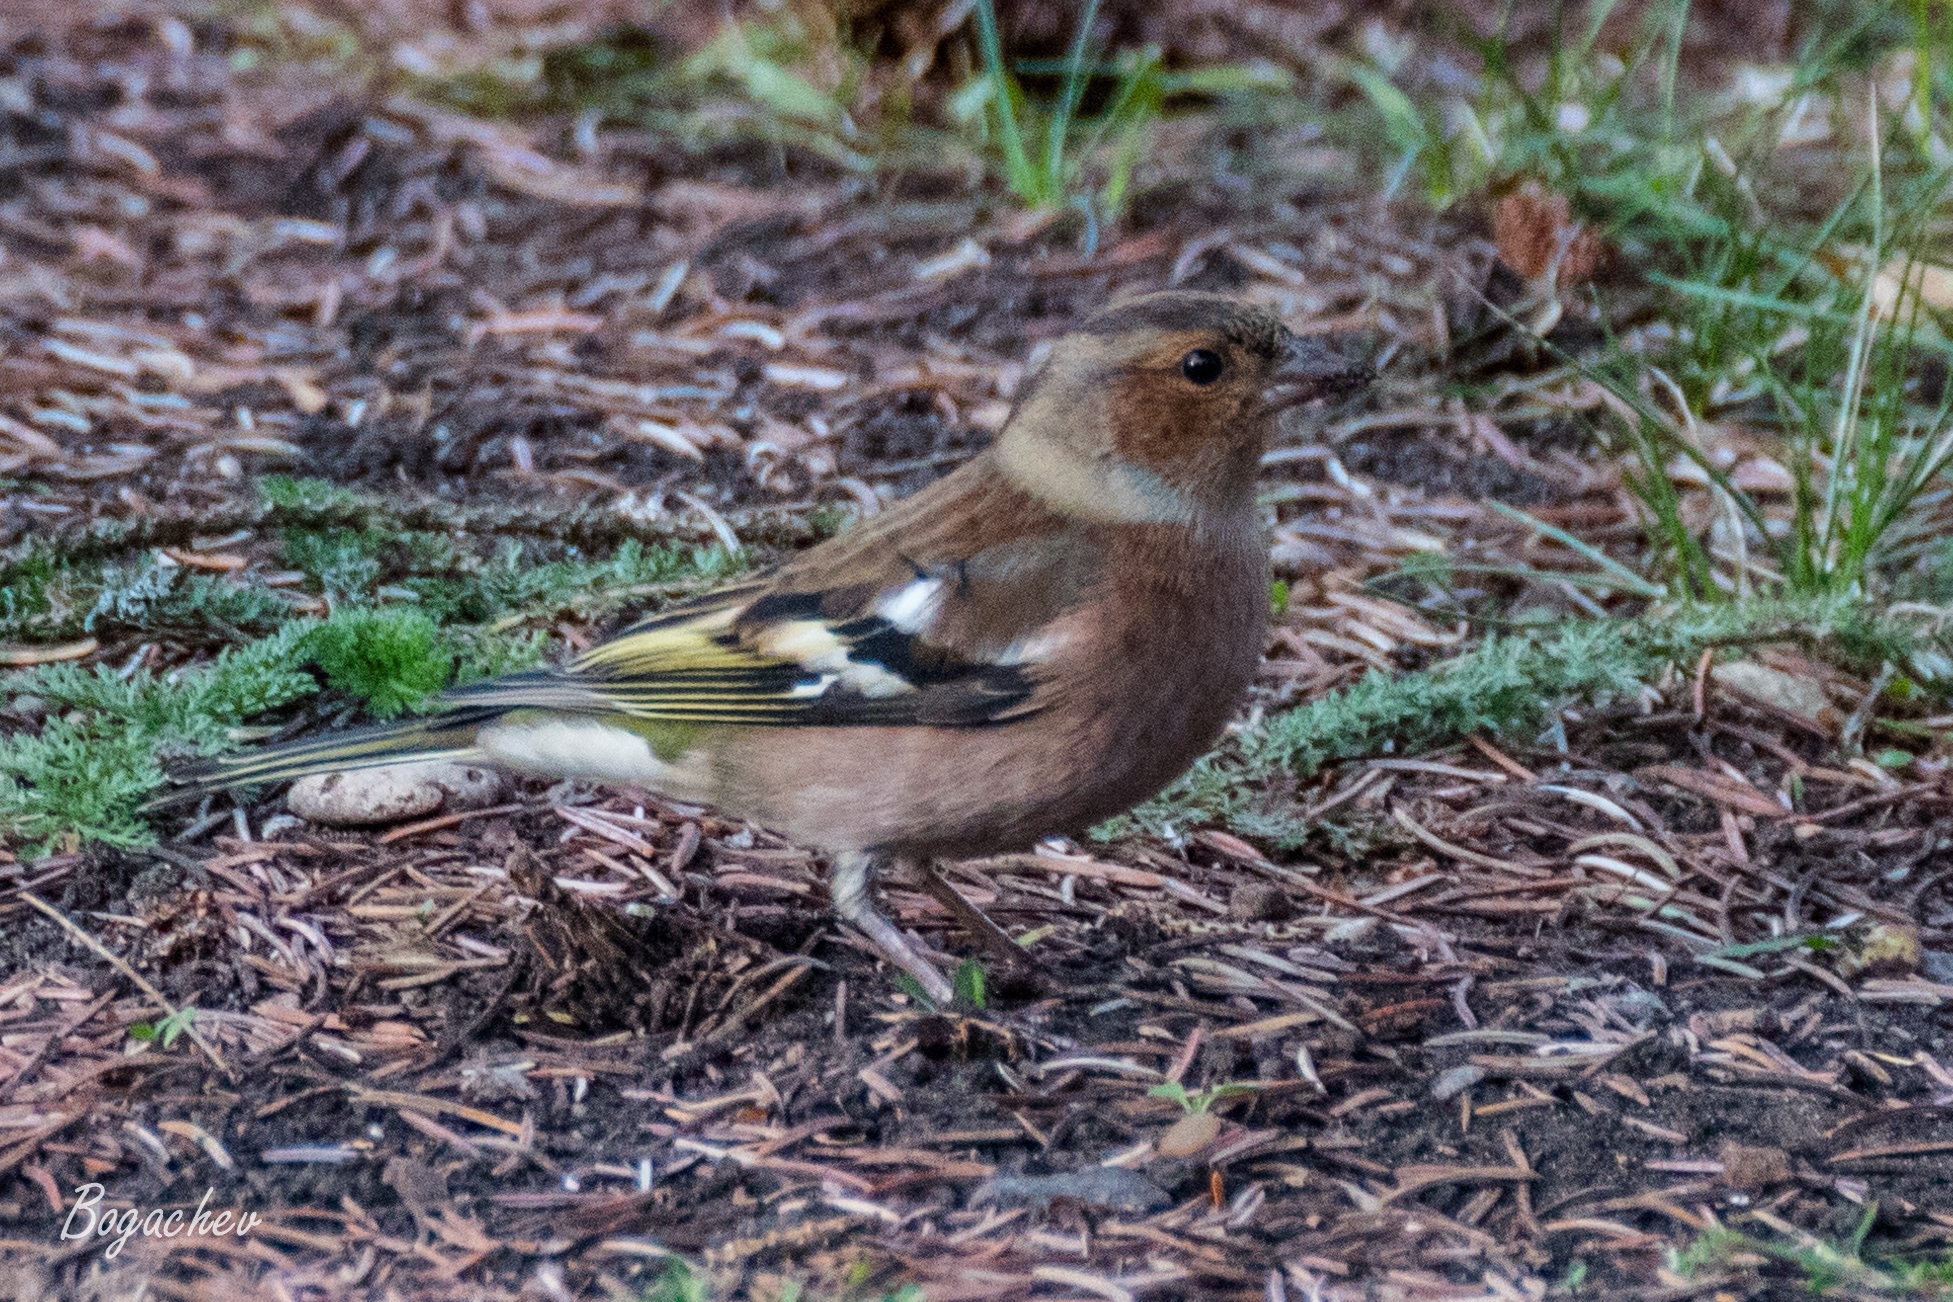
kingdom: Animalia
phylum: Chordata
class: Aves
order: Passeriformes
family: Fringillidae
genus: Fringilla
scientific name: Fringilla coelebs
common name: Common chaffinch
